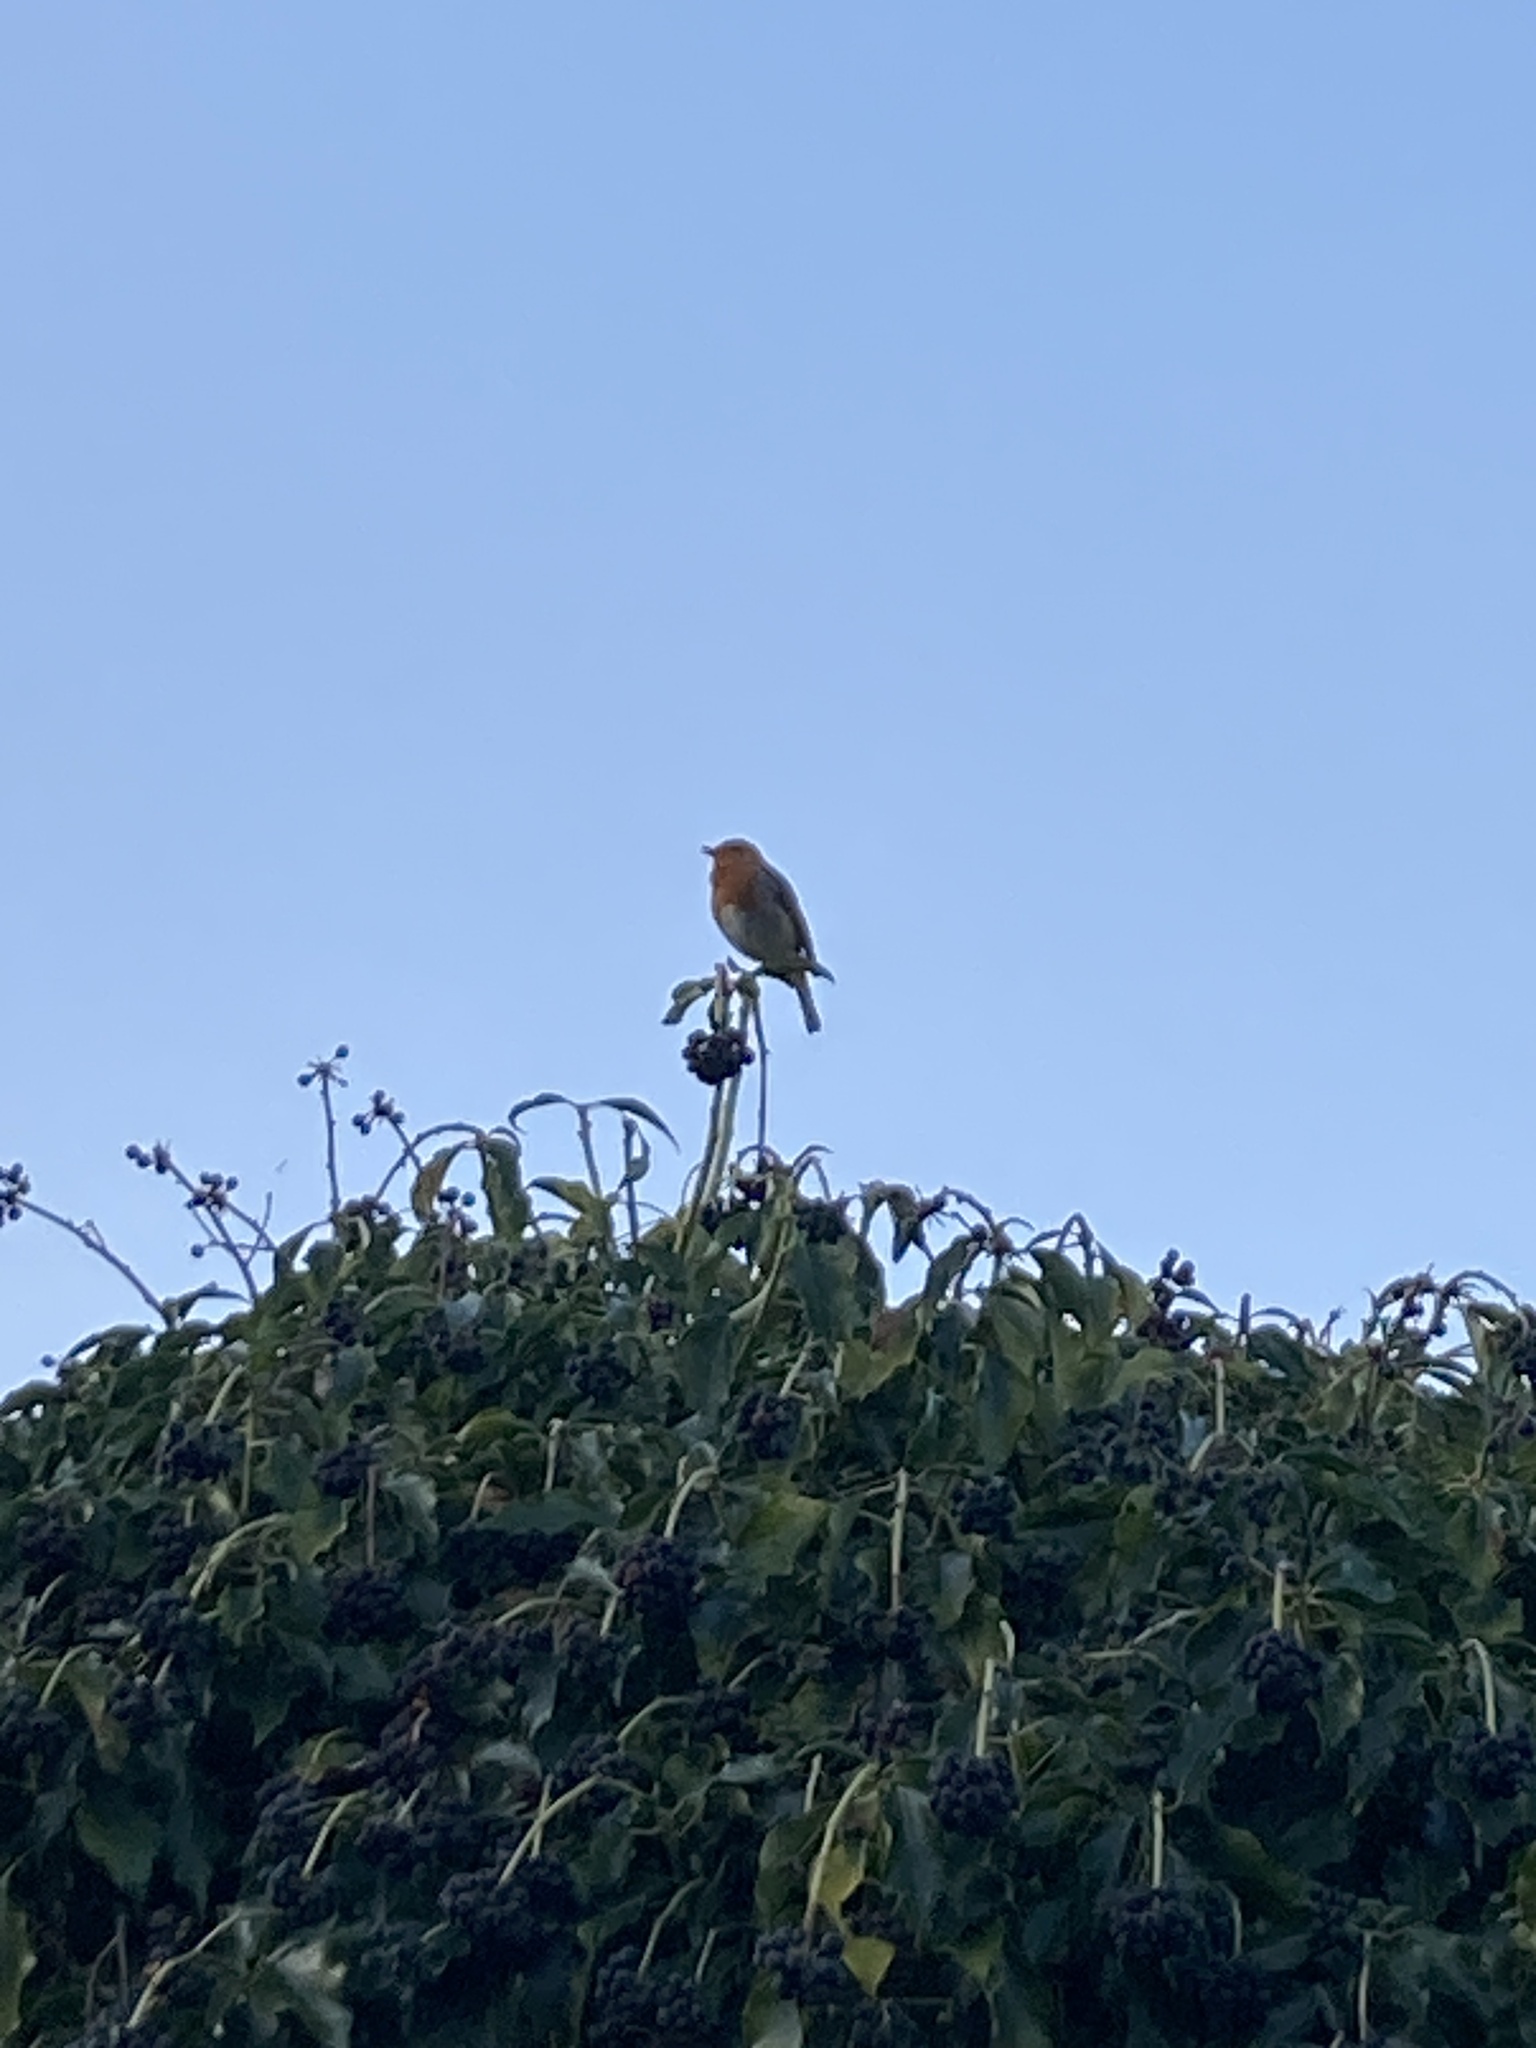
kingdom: Animalia
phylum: Chordata
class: Aves
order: Passeriformes
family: Muscicapidae
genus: Erithacus
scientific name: Erithacus rubecula
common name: European robin
